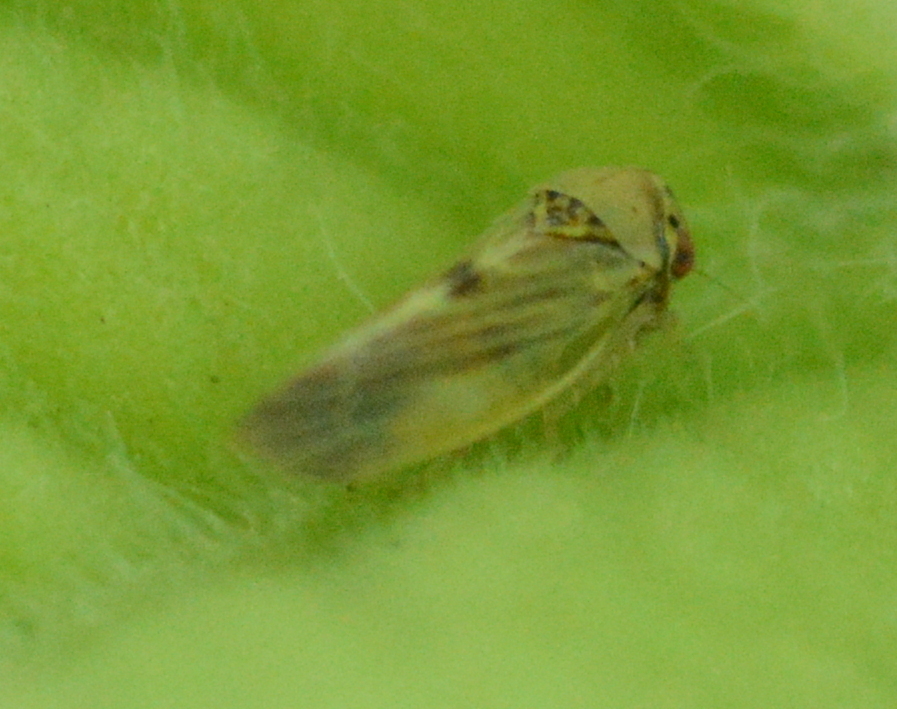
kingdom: Animalia
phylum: Arthropoda
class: Insecta
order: Hemiptera
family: Cicadellidae
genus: Agalliopsis
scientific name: Agalliopsis ancistra
